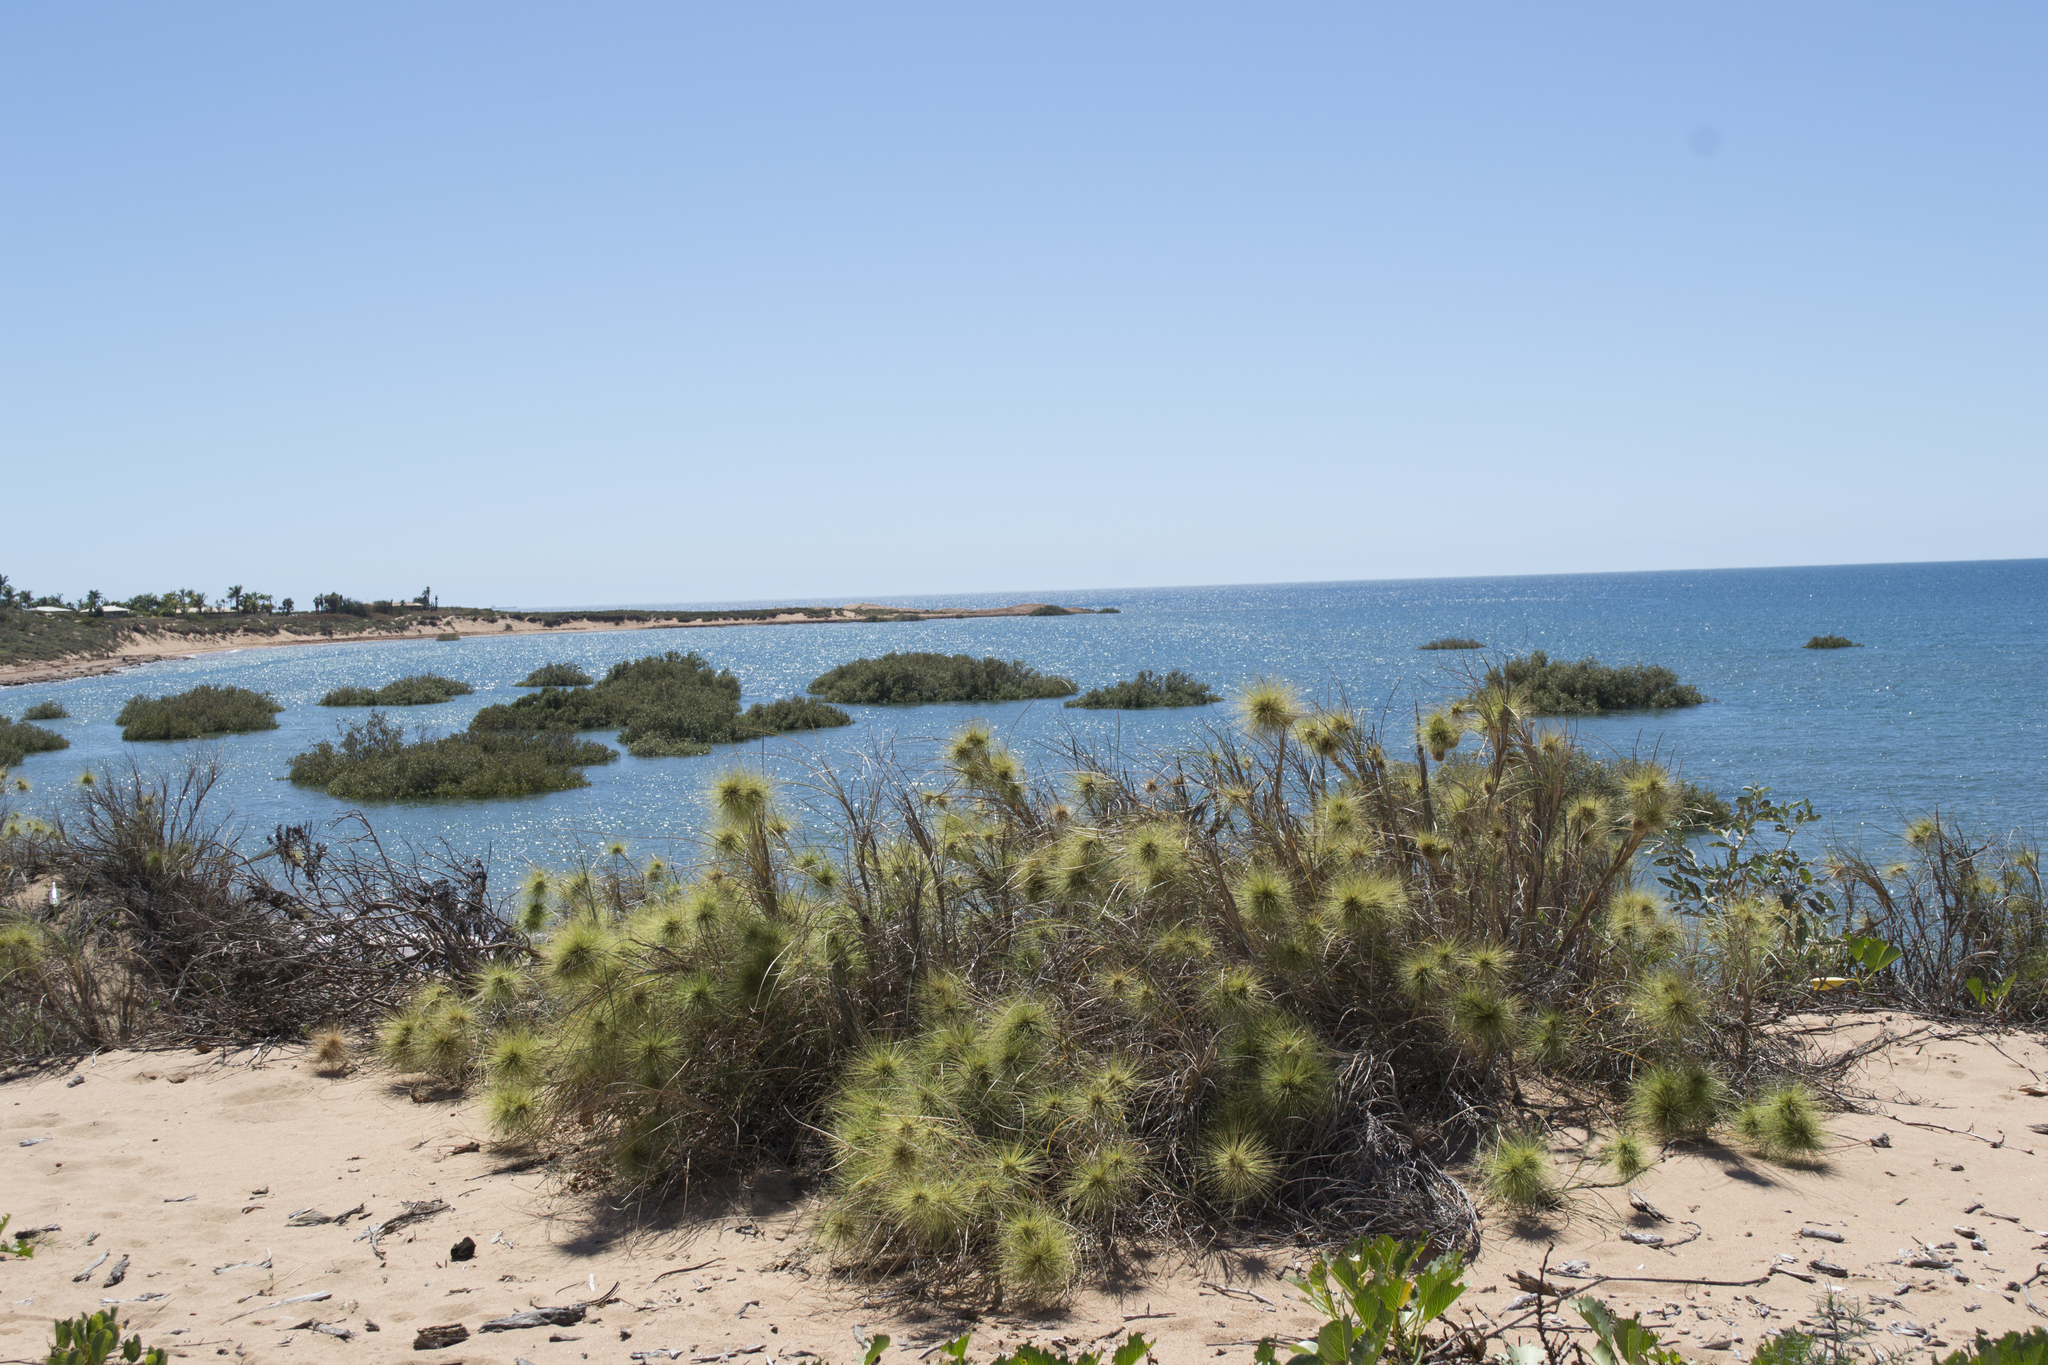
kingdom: Plantae
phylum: Tracheophyta
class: Liliopsida
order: Poales
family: Poaceae
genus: Spinifex
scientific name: Spinifex longifolius
